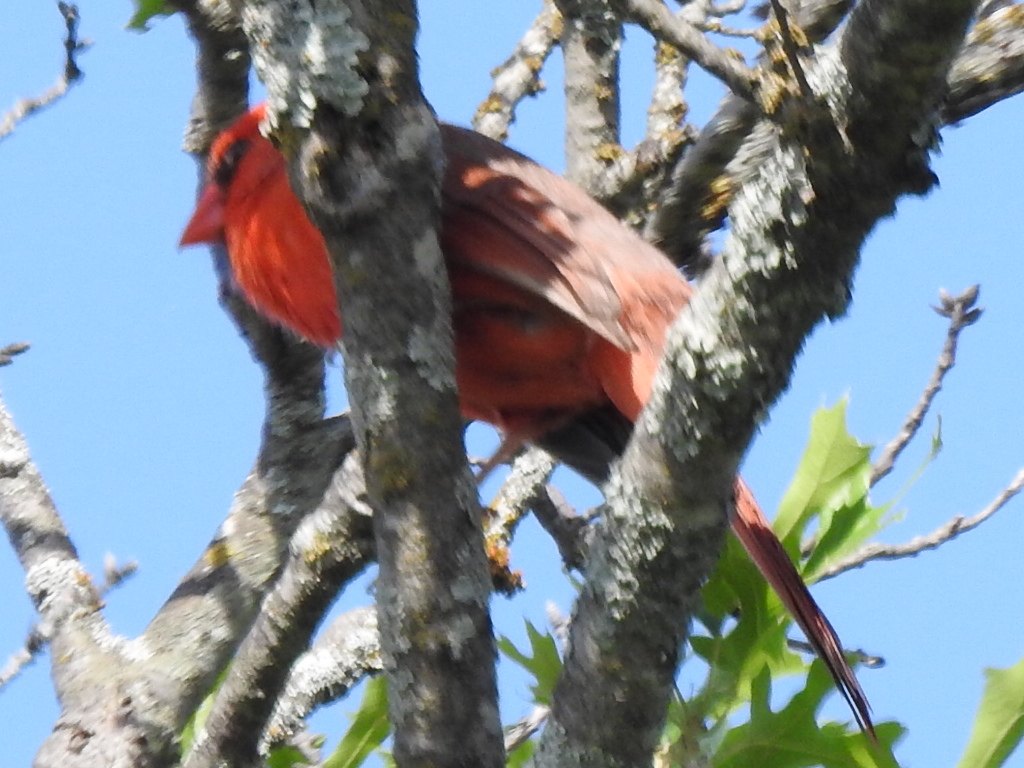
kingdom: Animalia
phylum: Chordata
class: Aves
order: Passeriformes
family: Cardinalidae
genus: Cardinalis
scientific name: Cardinalis cardinalis
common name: Northern cardinal
